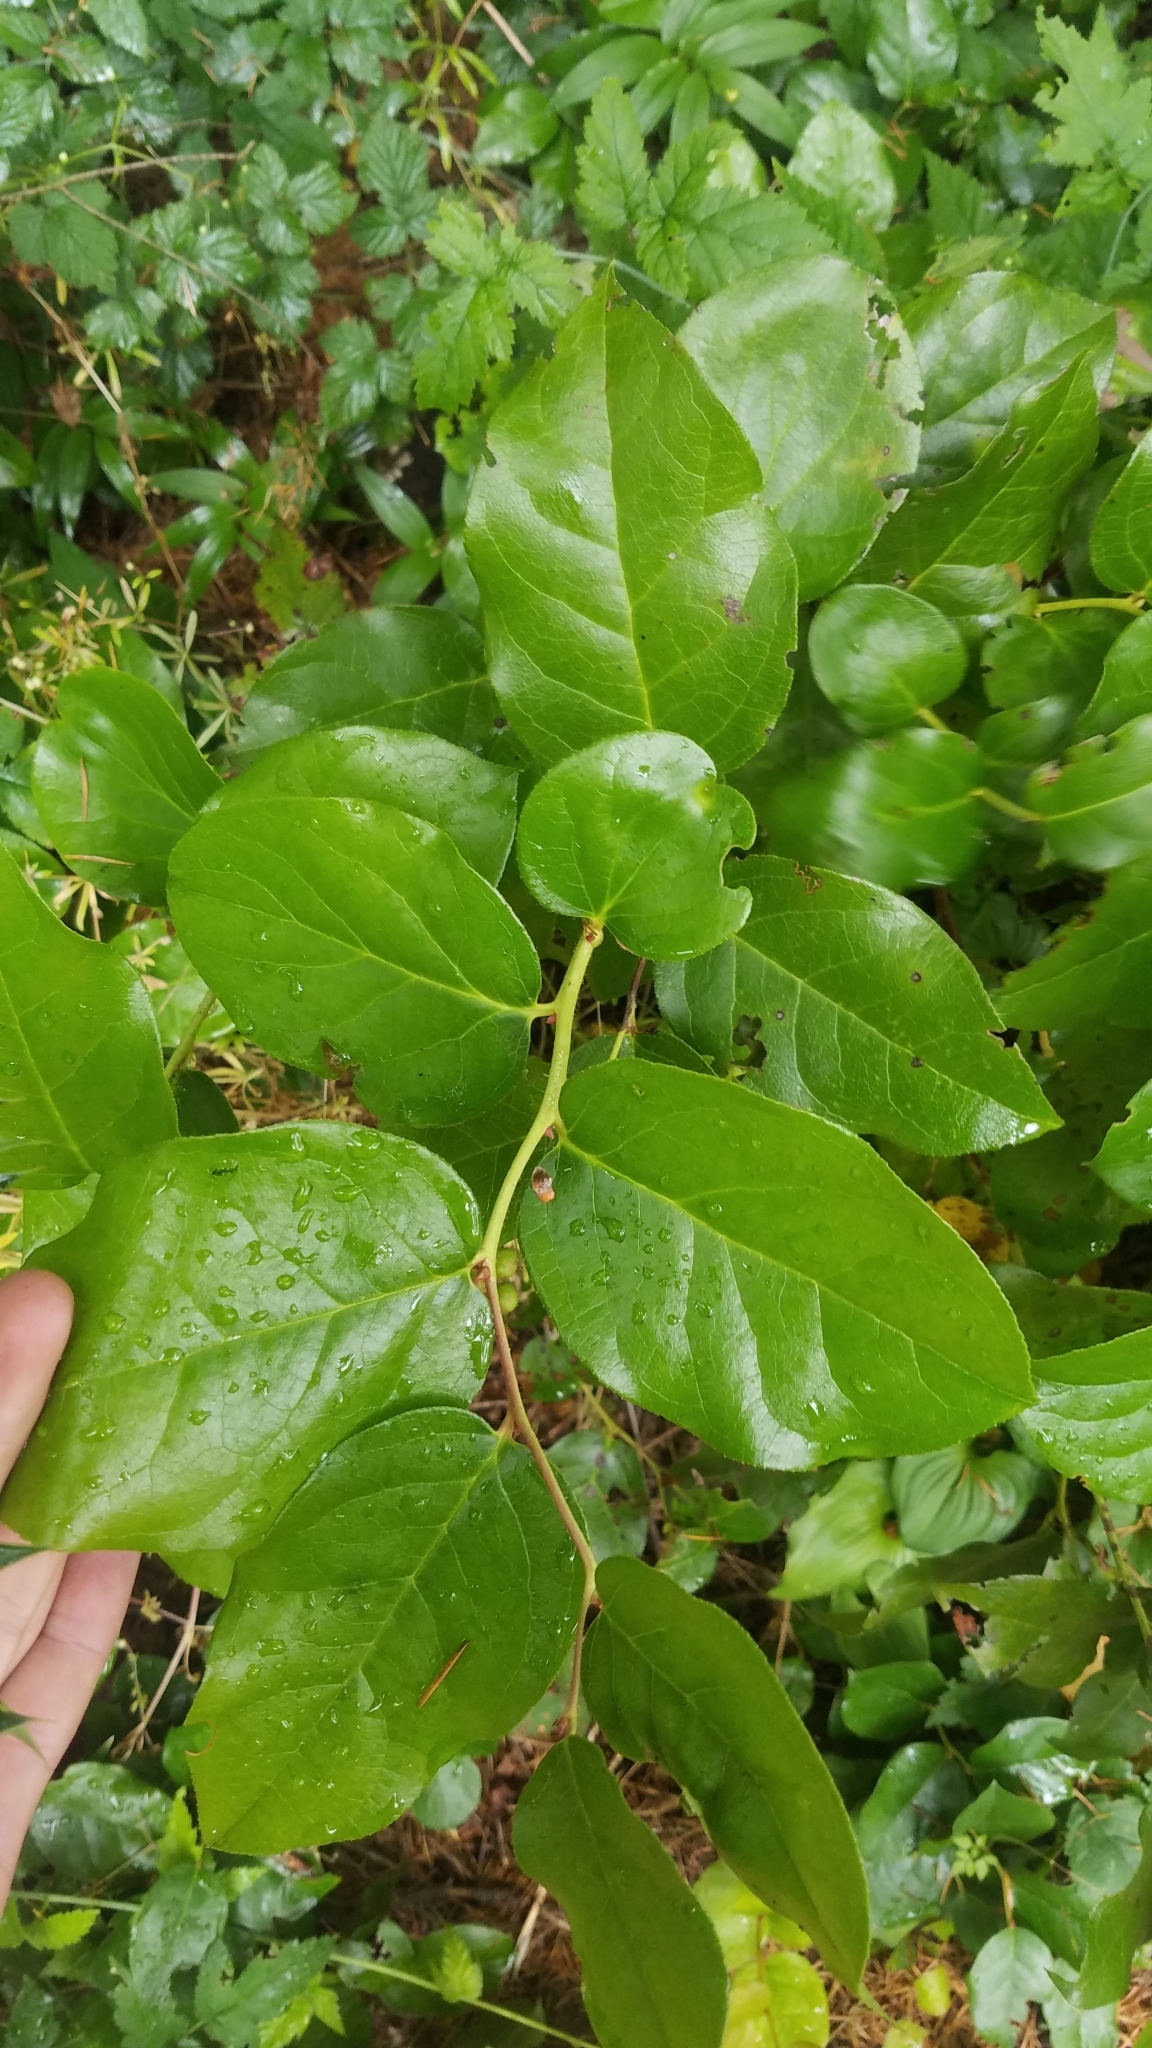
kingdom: Plantae
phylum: Tracheophyta
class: Magnoliopsida
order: Ericales
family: Ericaceae
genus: Gaultheria
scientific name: Gaultheria shallon
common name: Shallon
